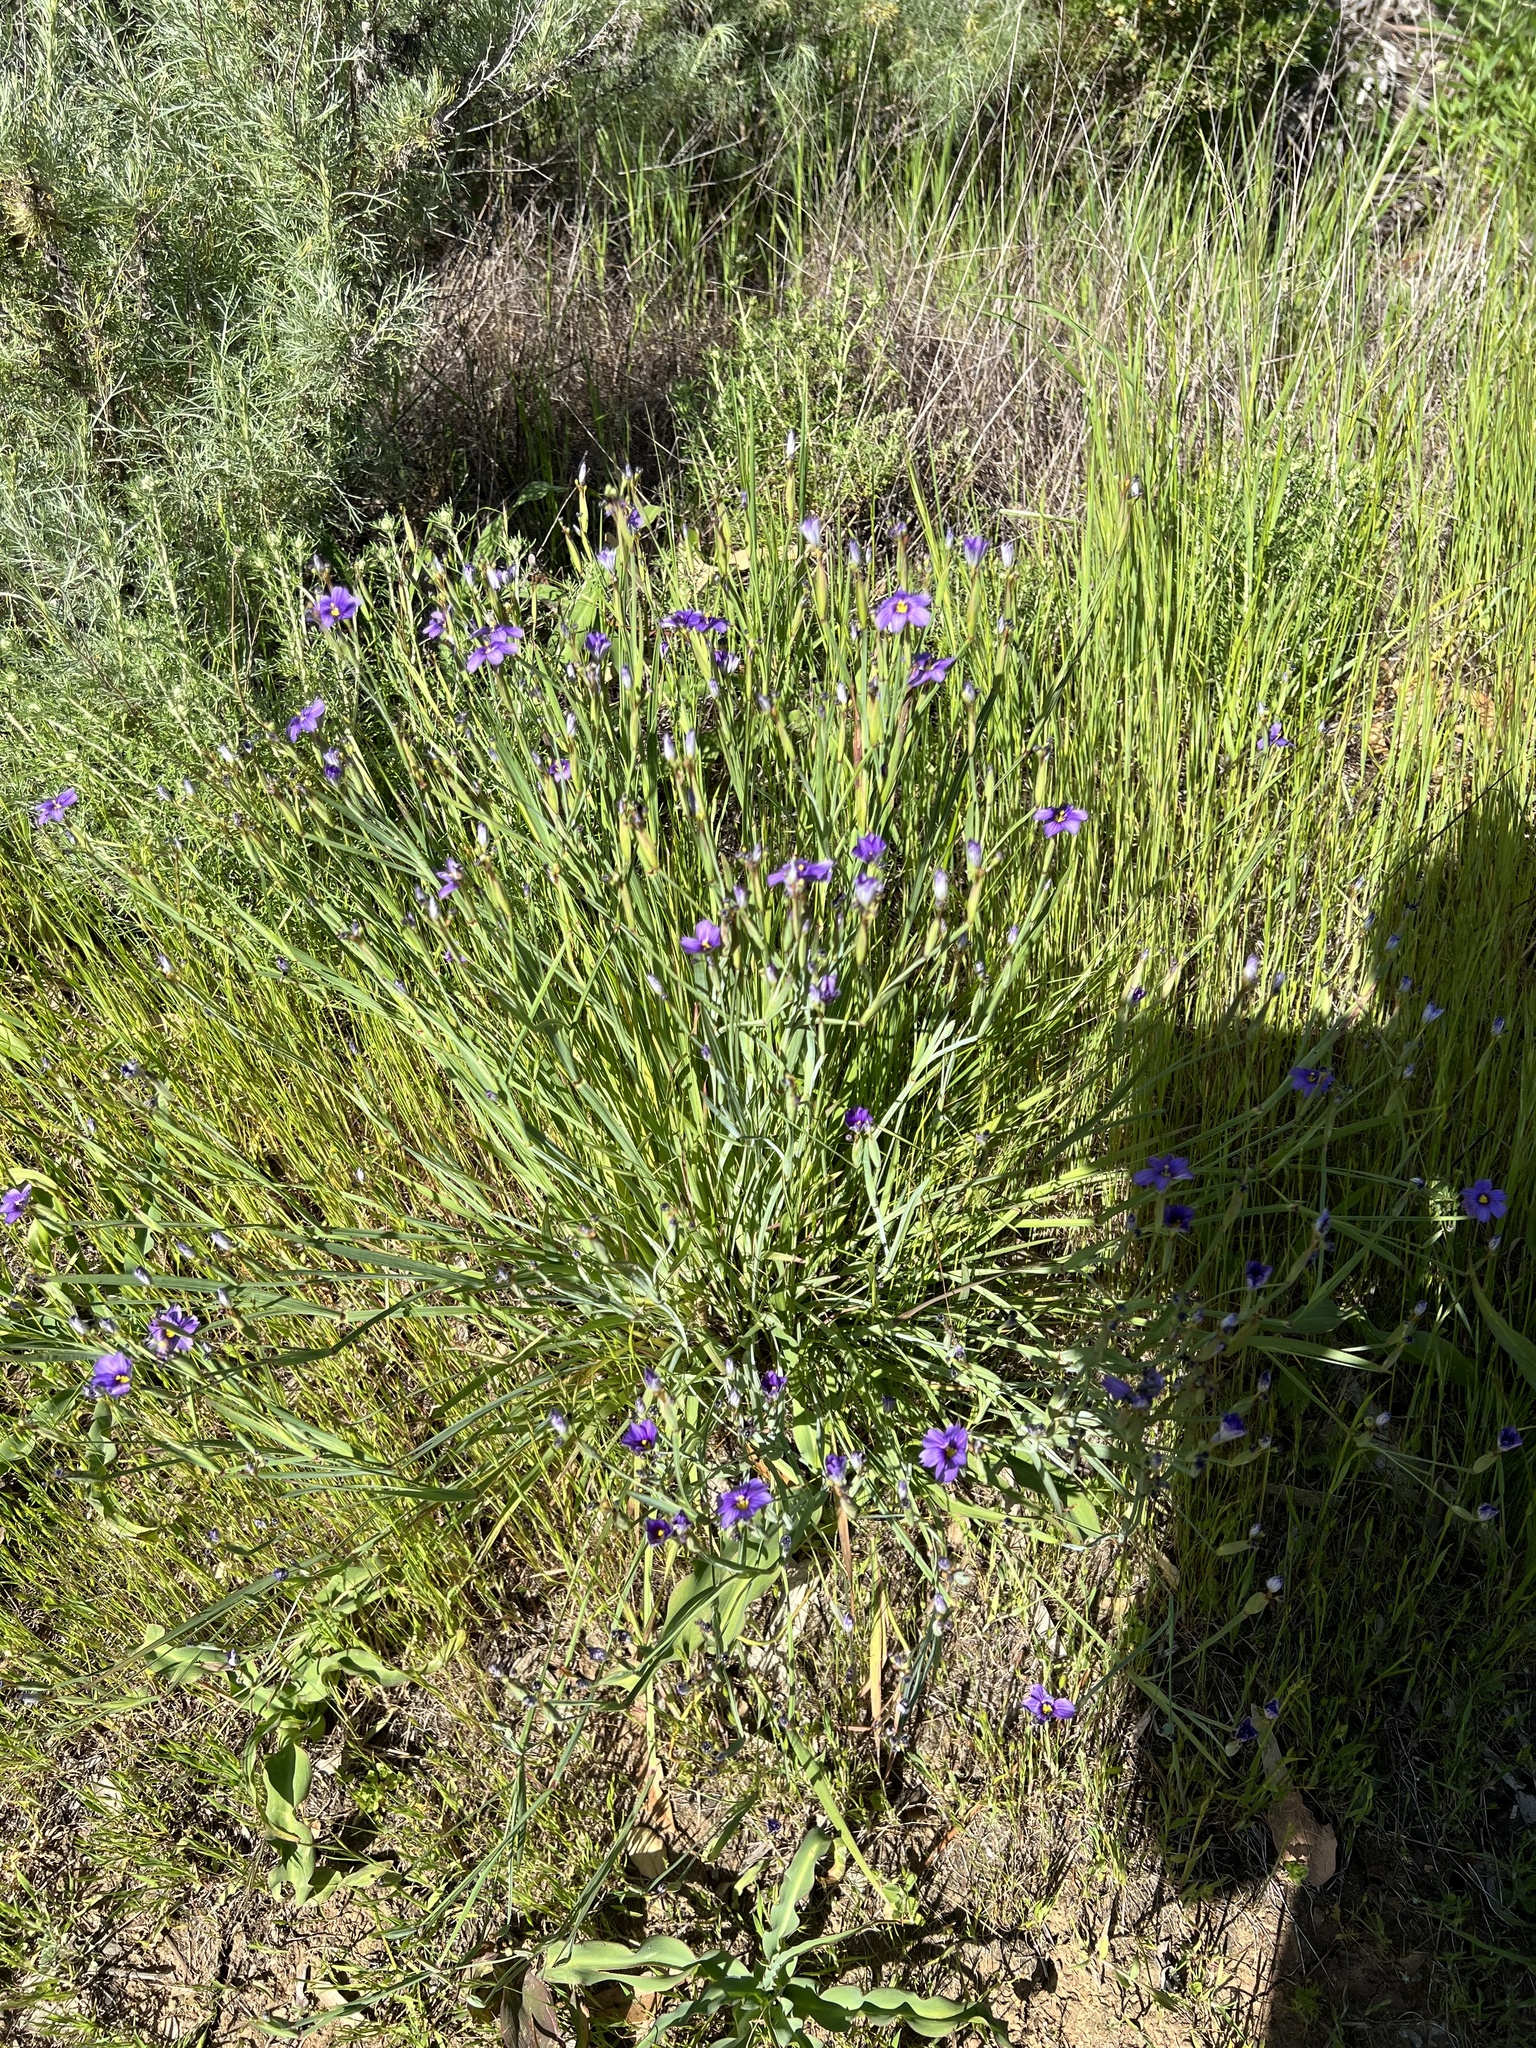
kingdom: Plantae
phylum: Tracheophyta
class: Liliopsida
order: Asparagales
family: Iridaceae
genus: Sisyrinchium
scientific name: Sisyrinchium bellum
